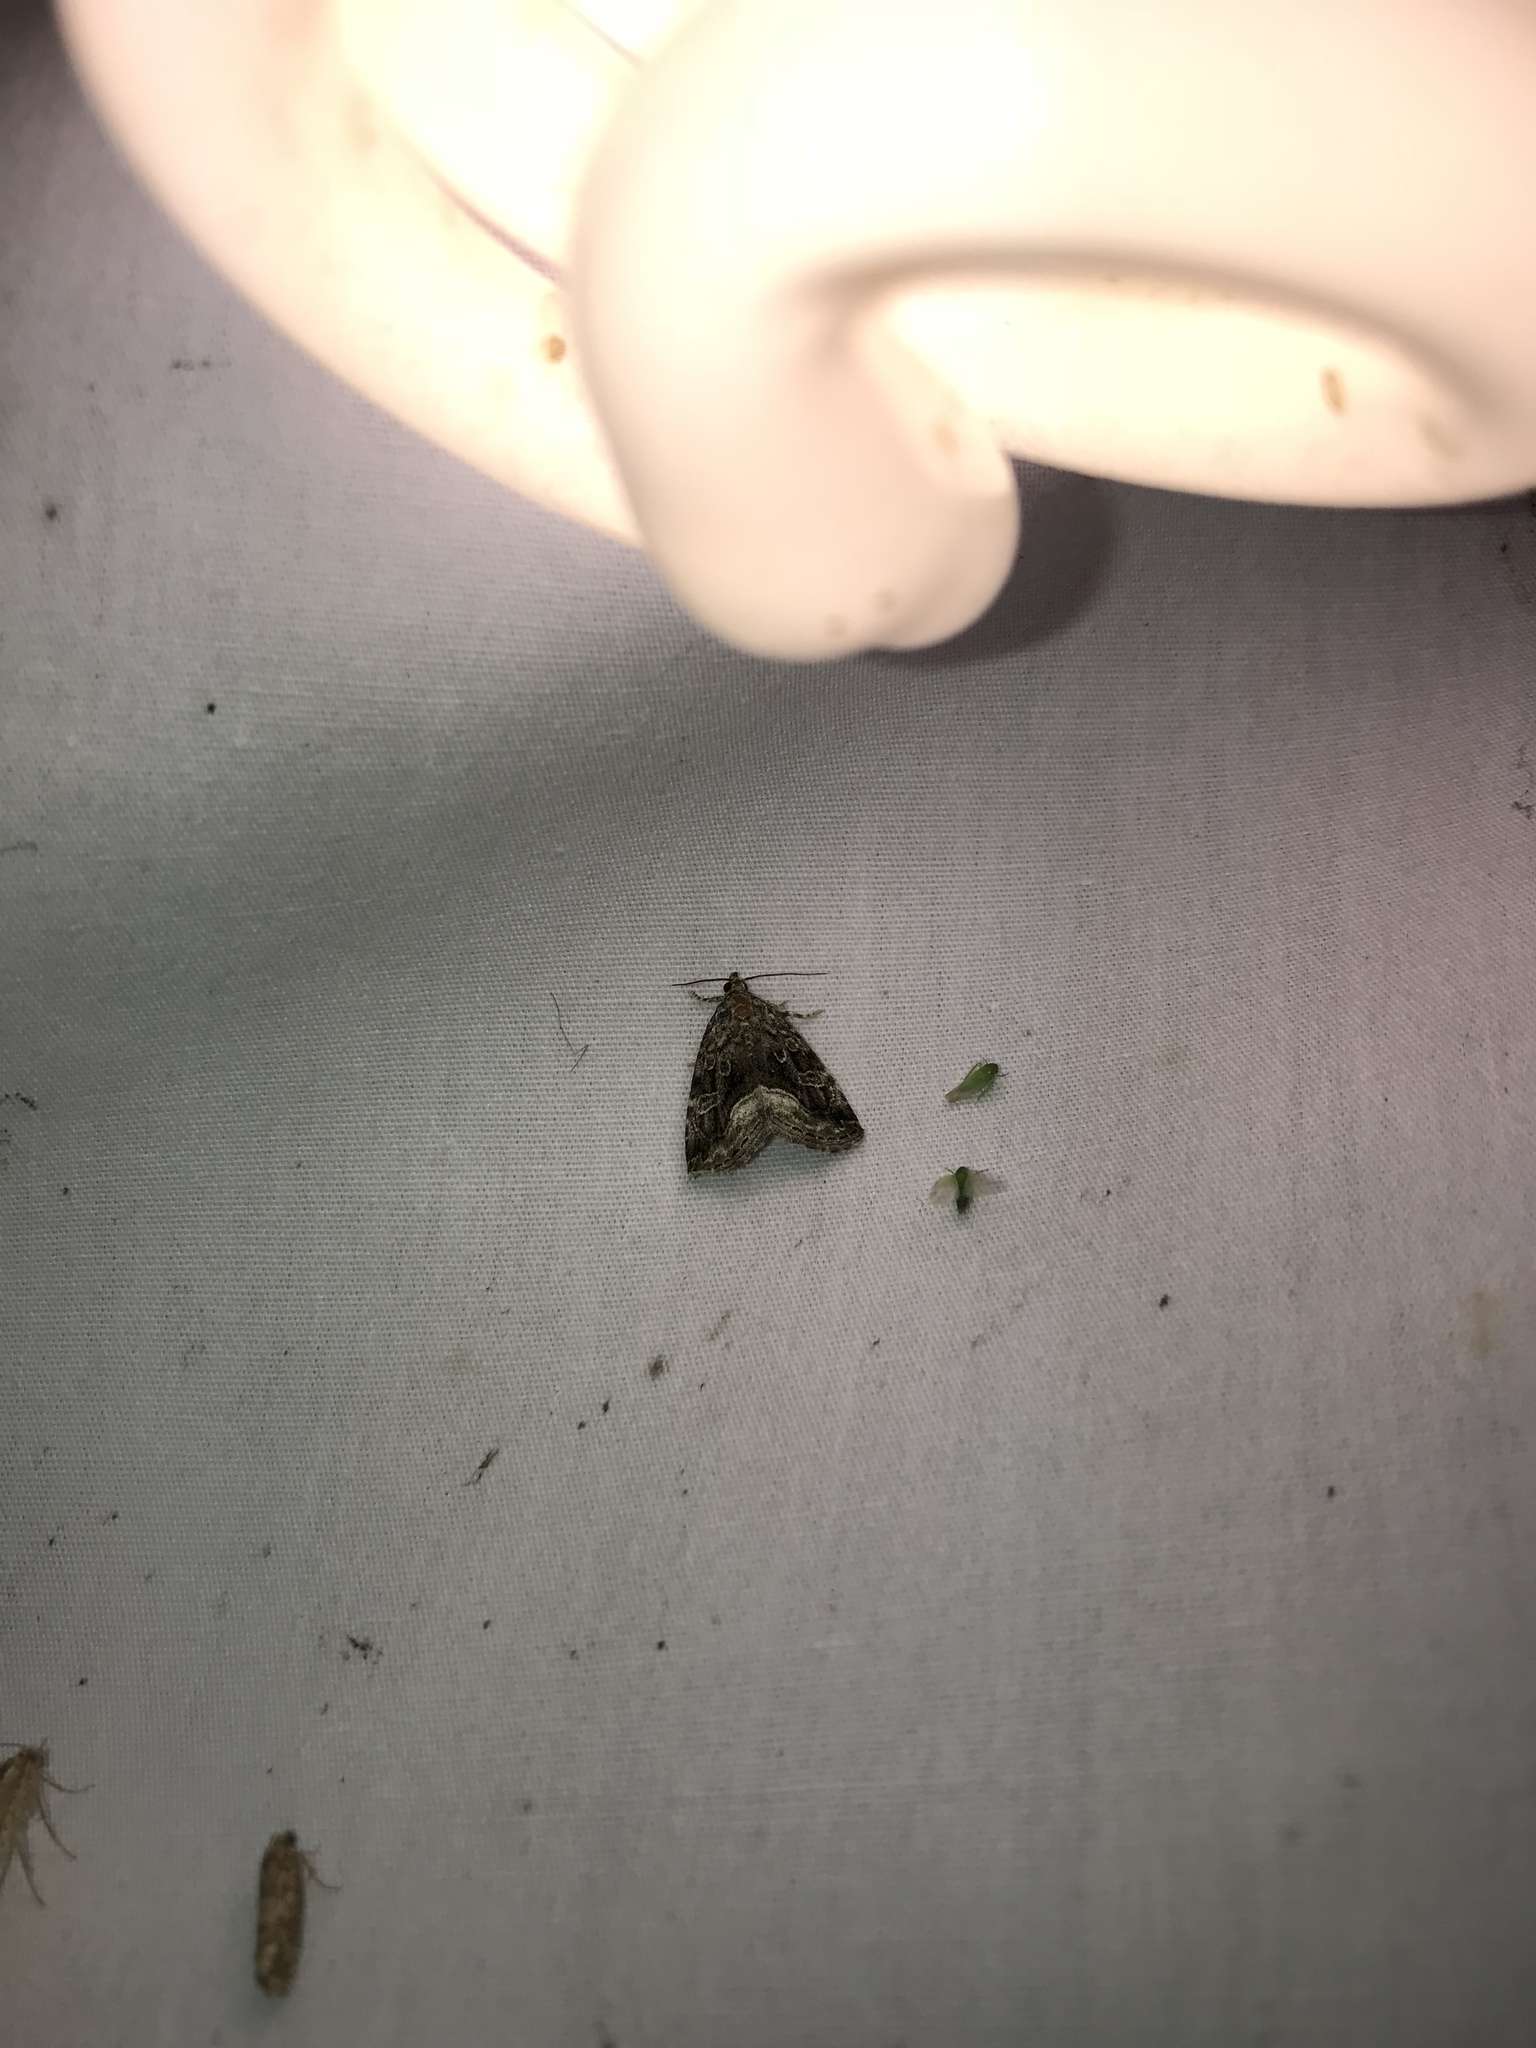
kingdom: Animalia
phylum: Arthropoda
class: Insecta
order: Lepidoptera
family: Noctuidae
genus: Protodeltote
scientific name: Protodeltote muscosula
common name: Large mossy glyph
